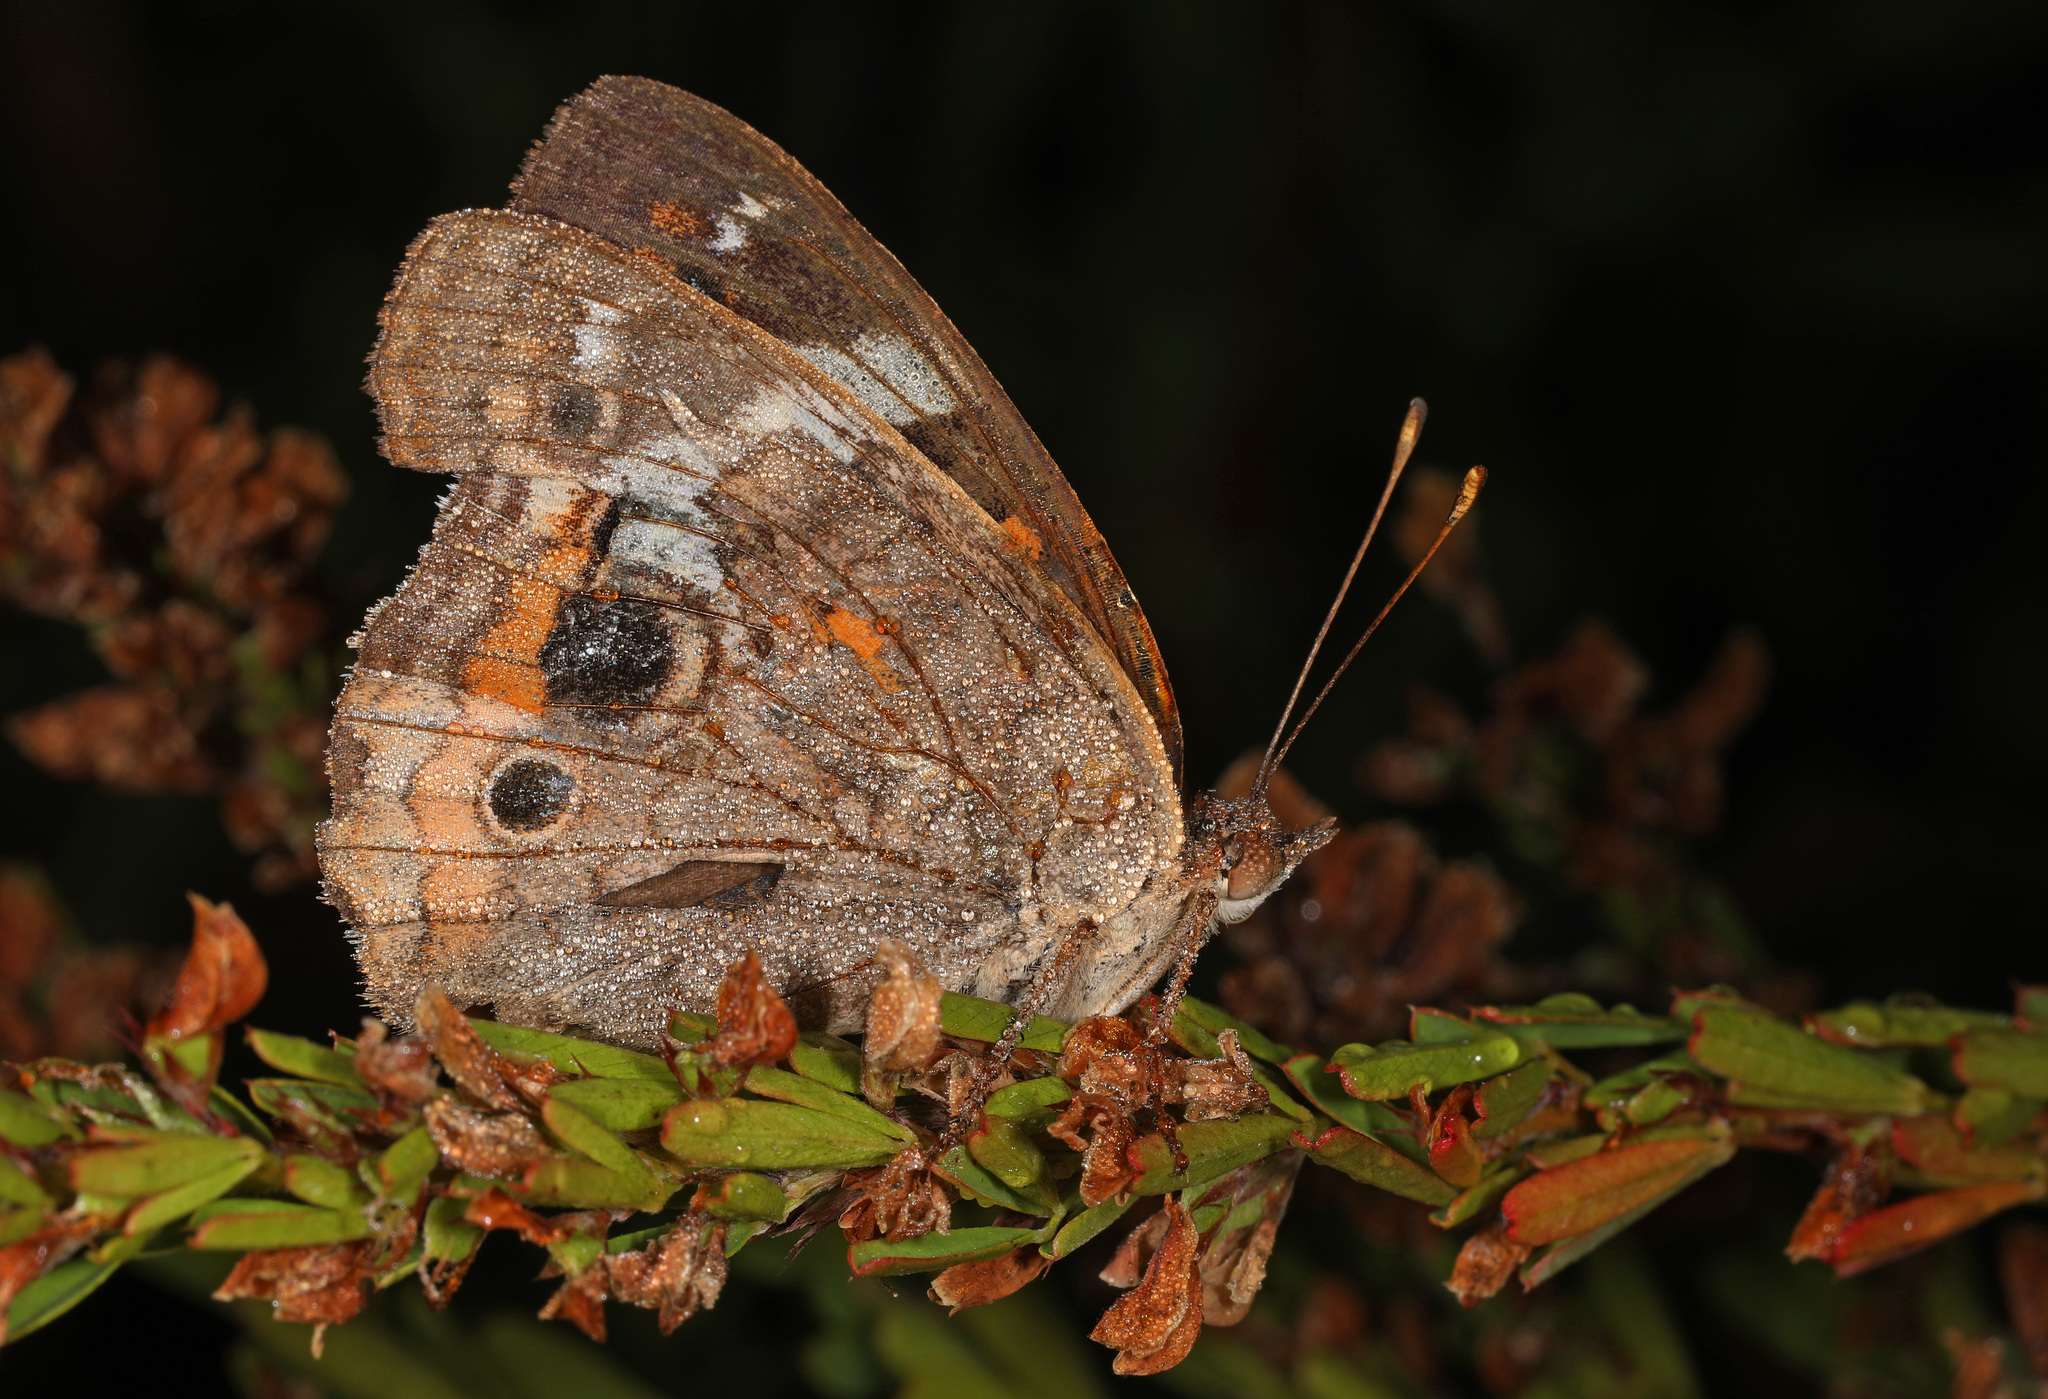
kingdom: Animalia
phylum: Arthropoda
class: Insecta
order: Lepidoptera
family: Nymphalidae
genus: Junonia
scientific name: Junonia coenia
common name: Common buckeye
